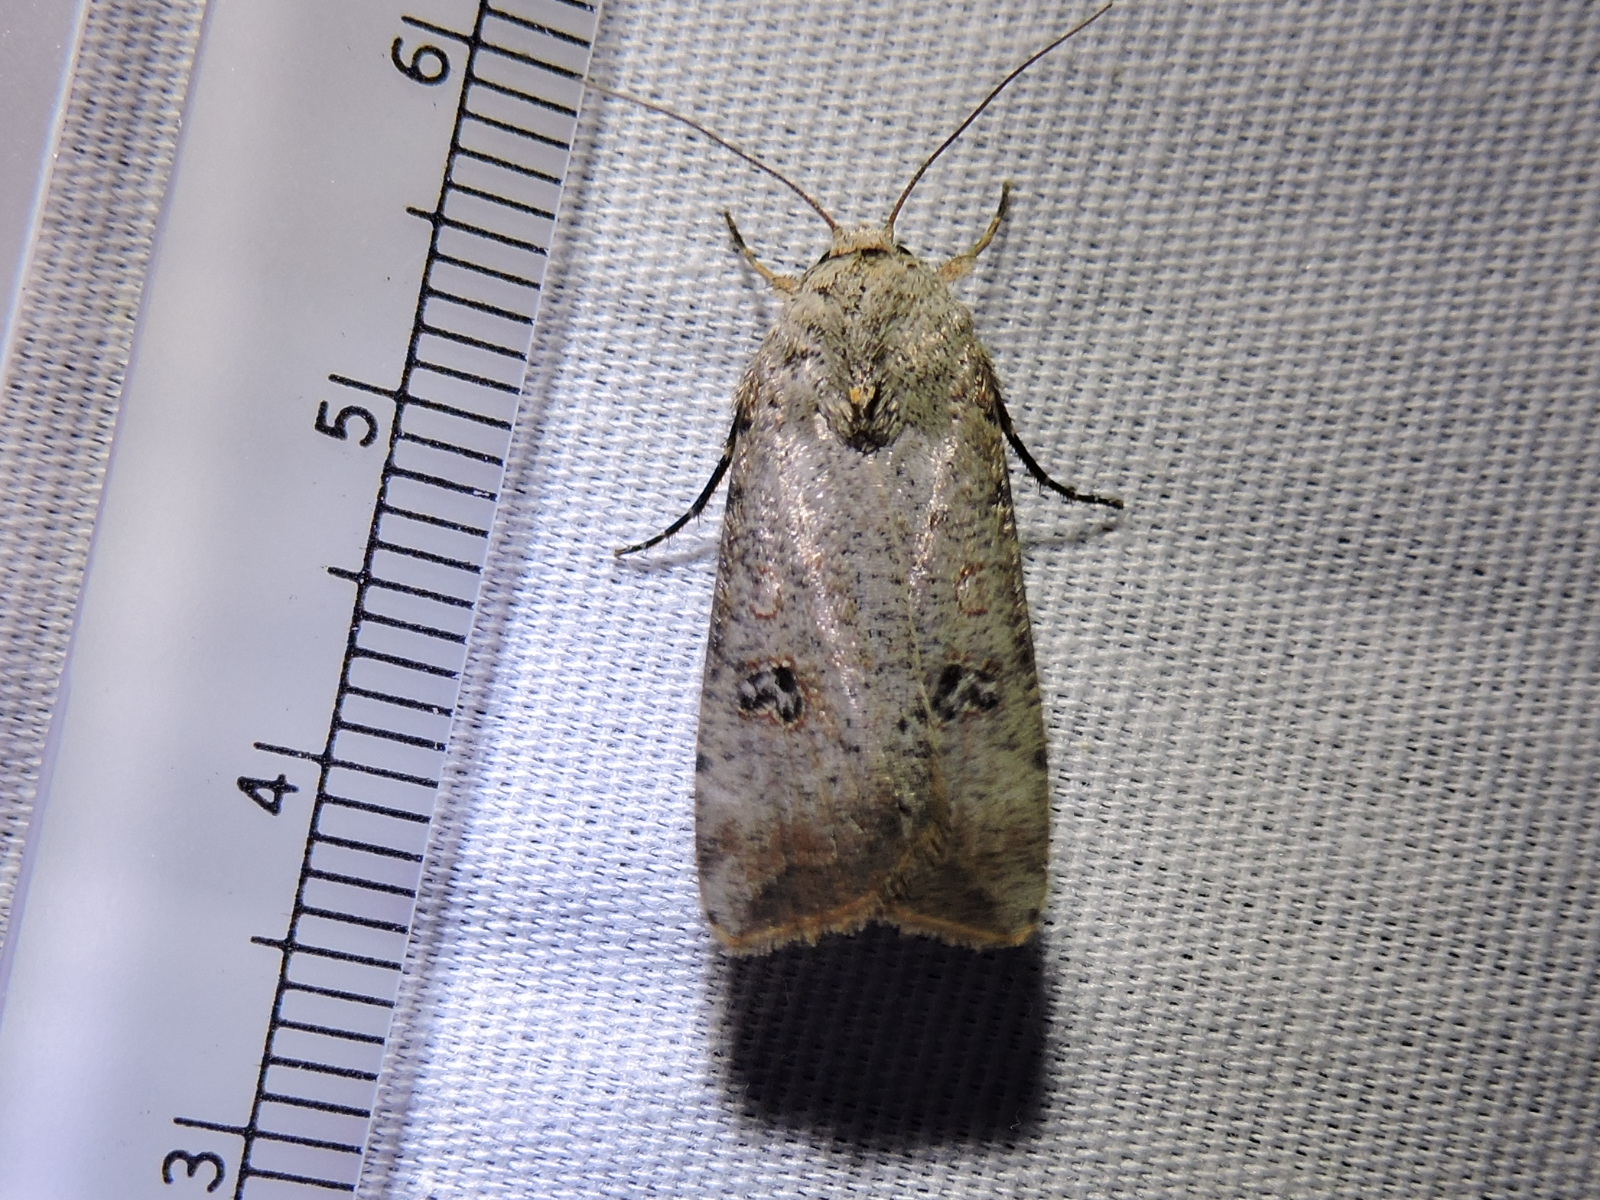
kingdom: Animalia
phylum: Arthropoda
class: Insecta
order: Lepidoptera
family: Noctuidae
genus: Anicla
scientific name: Anicla infecta
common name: Green cutworm
